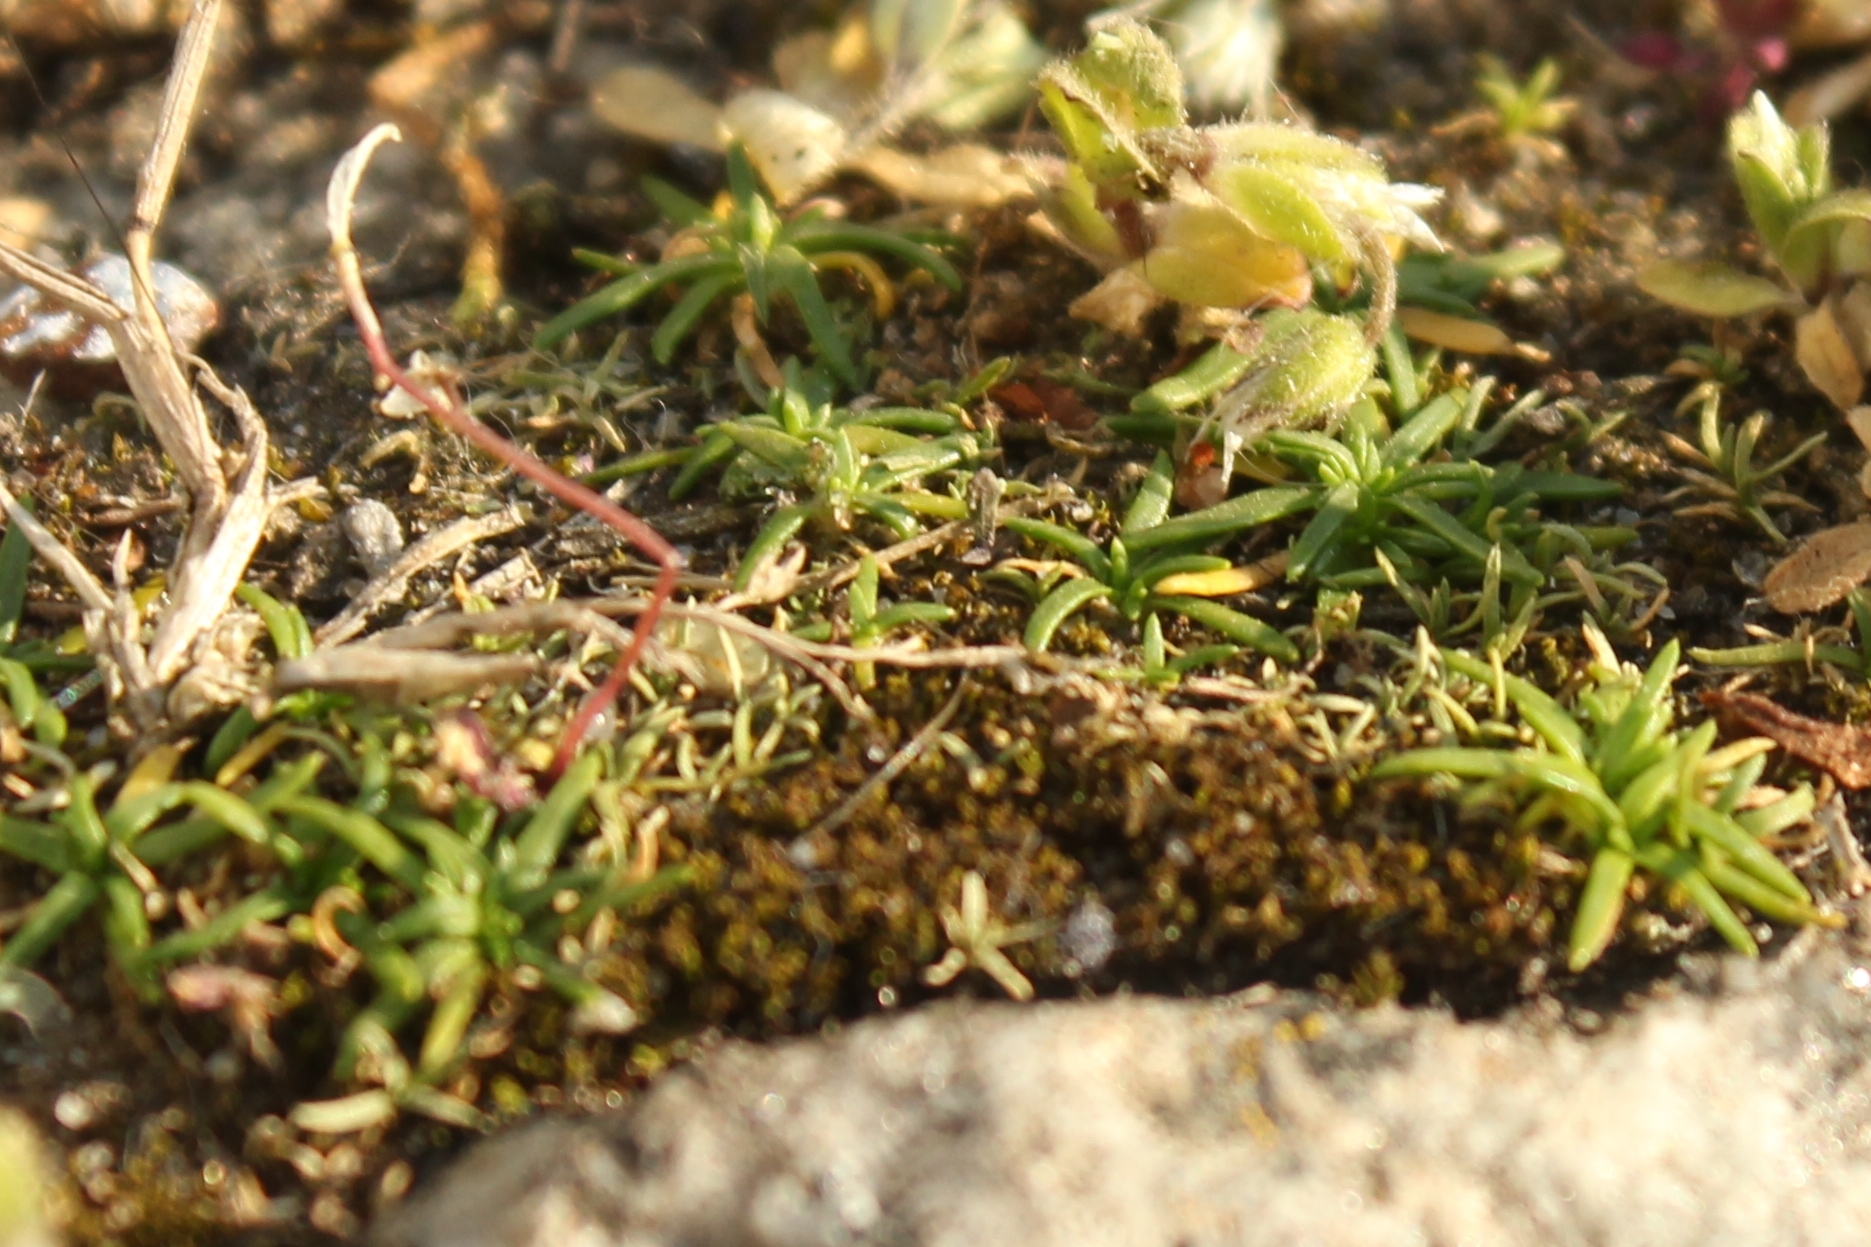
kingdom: Plantae
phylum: Tracheophyta
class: Magnoliopsida
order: Caryophyllales
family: Caryophyllaceae
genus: Sagina
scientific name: Sagina procumbens
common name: Procumbent pearlwort
